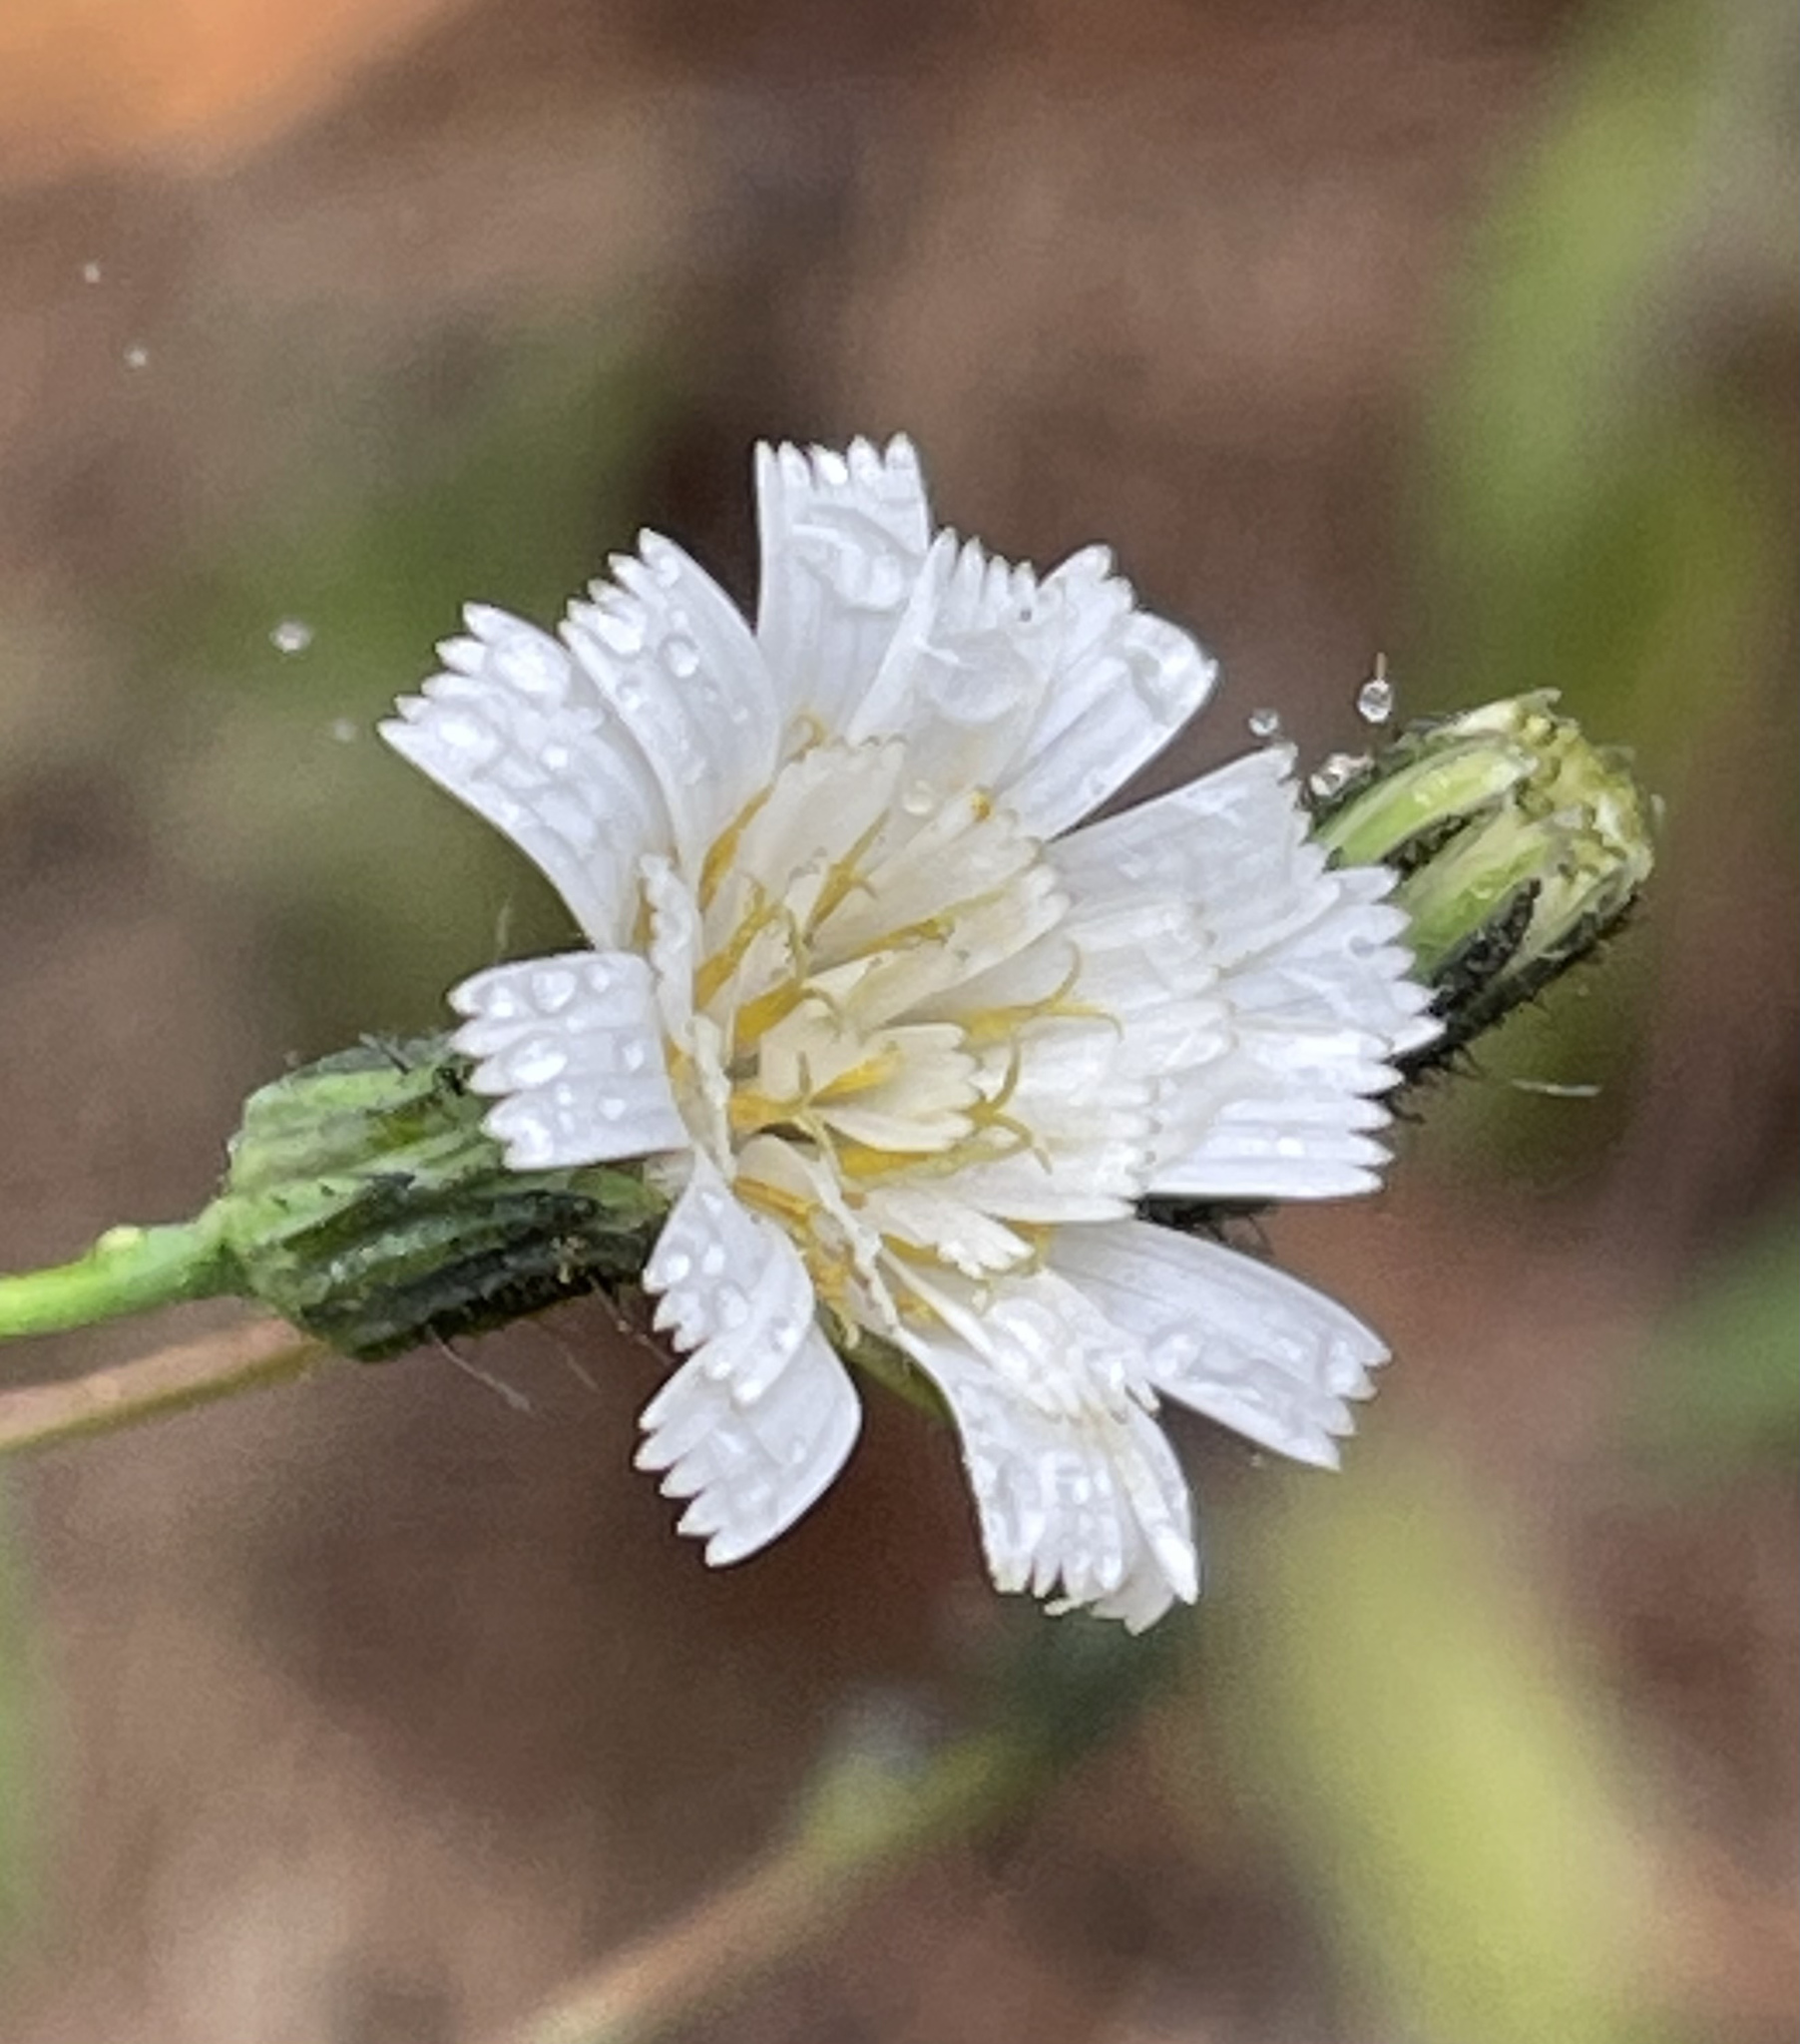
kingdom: Plantae
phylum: Tracheophyta
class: Magnoliopsida
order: Asterales
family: Asteraceae
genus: Hieracium
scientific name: Hieracium albiflorum
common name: White hawkweed
